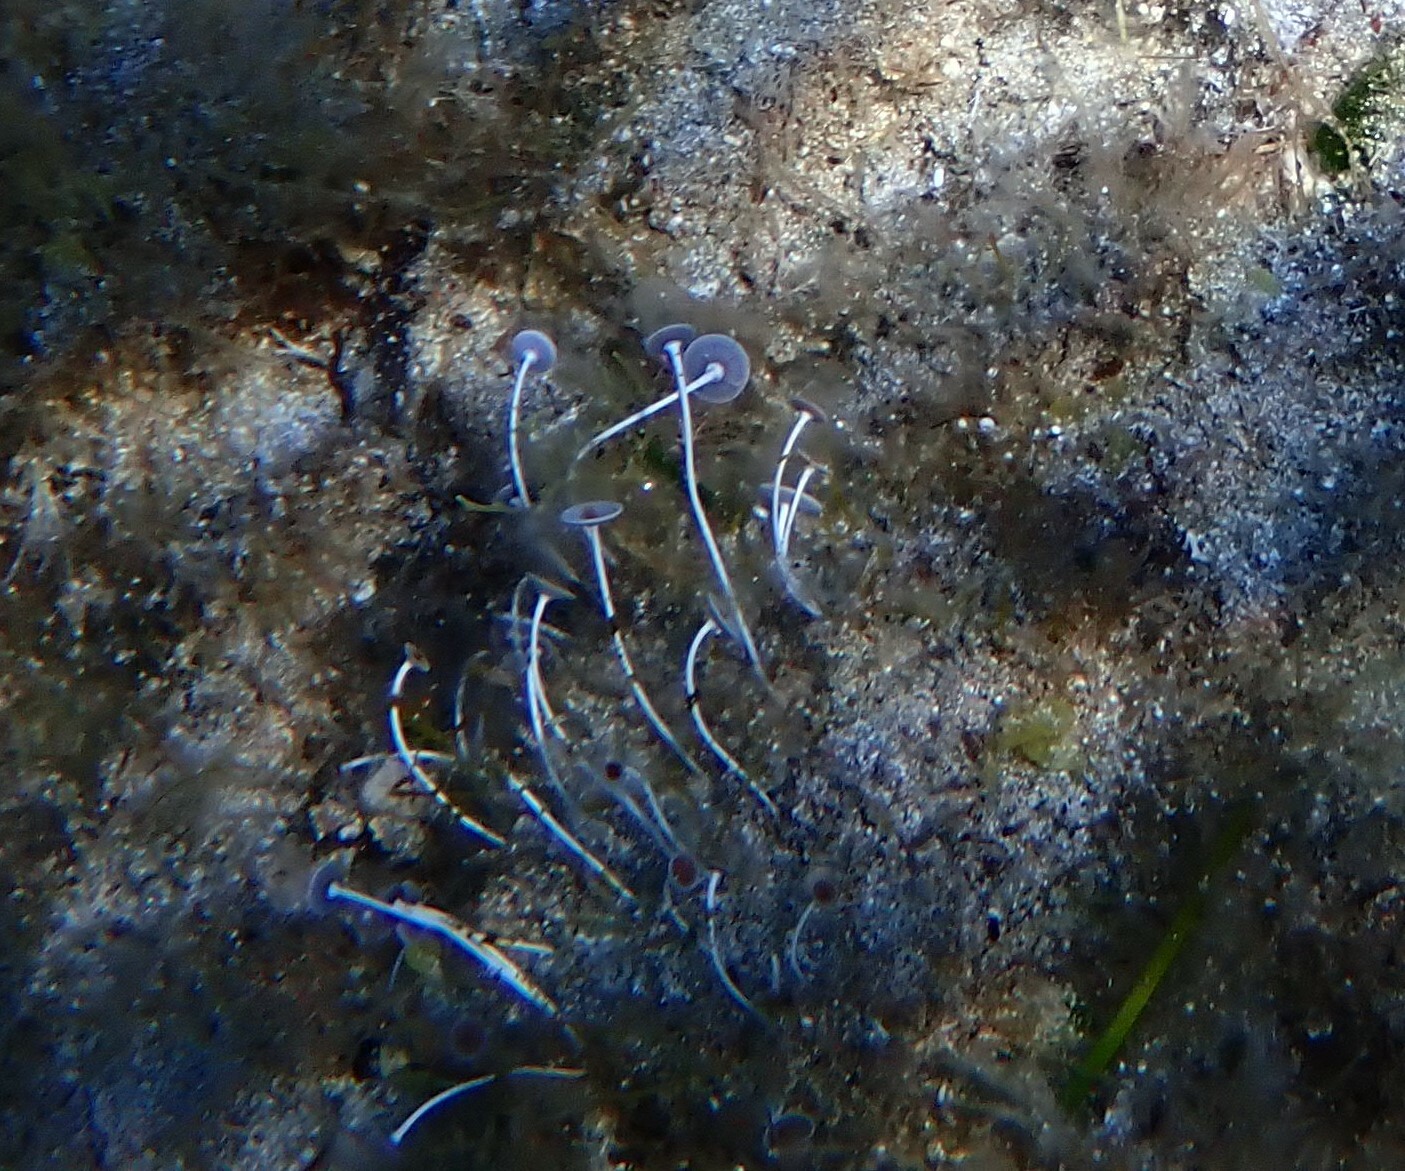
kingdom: Plantae
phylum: Chlorophyta
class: Ulvophyceae
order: Dasycladales
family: Polyphysaceae
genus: Acetabularia
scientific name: Acetabularia acetabulum
